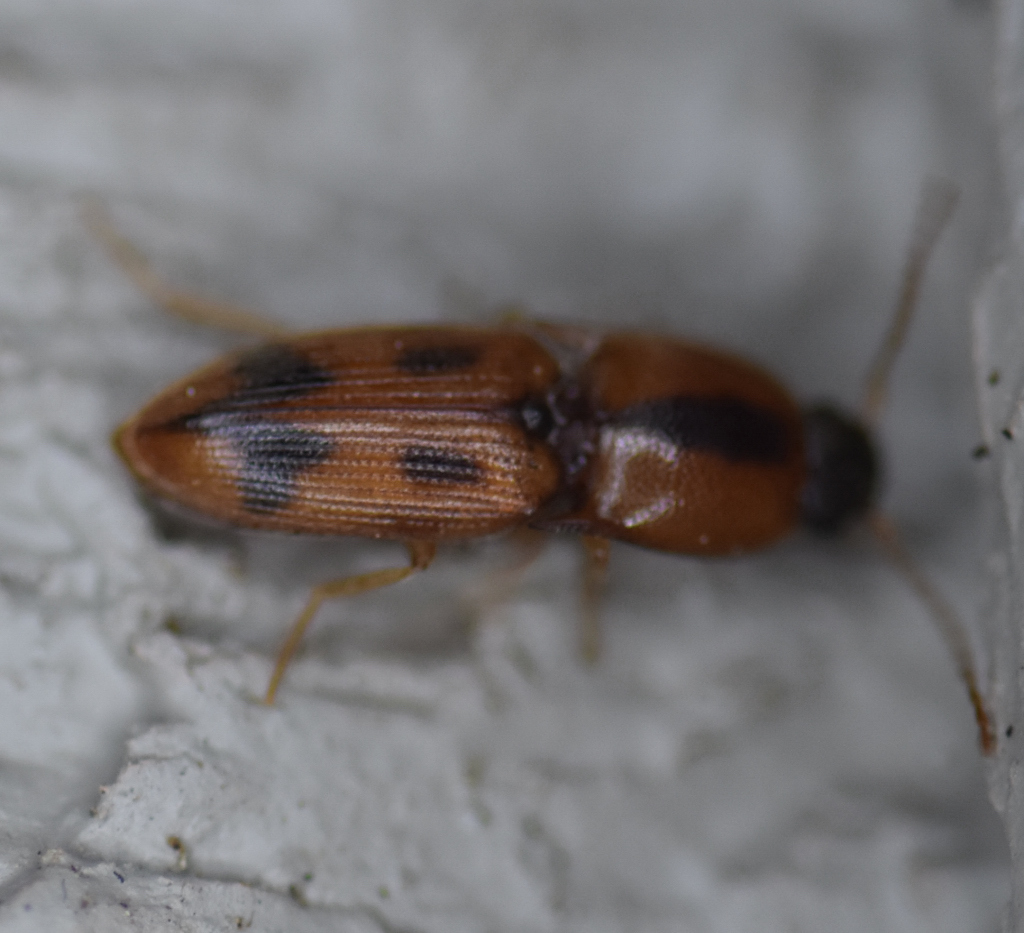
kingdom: Animalia
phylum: Arthropoda
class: Insecta
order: Coleoptera
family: Elateridae
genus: Aeolus
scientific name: Aeolus mellillus
